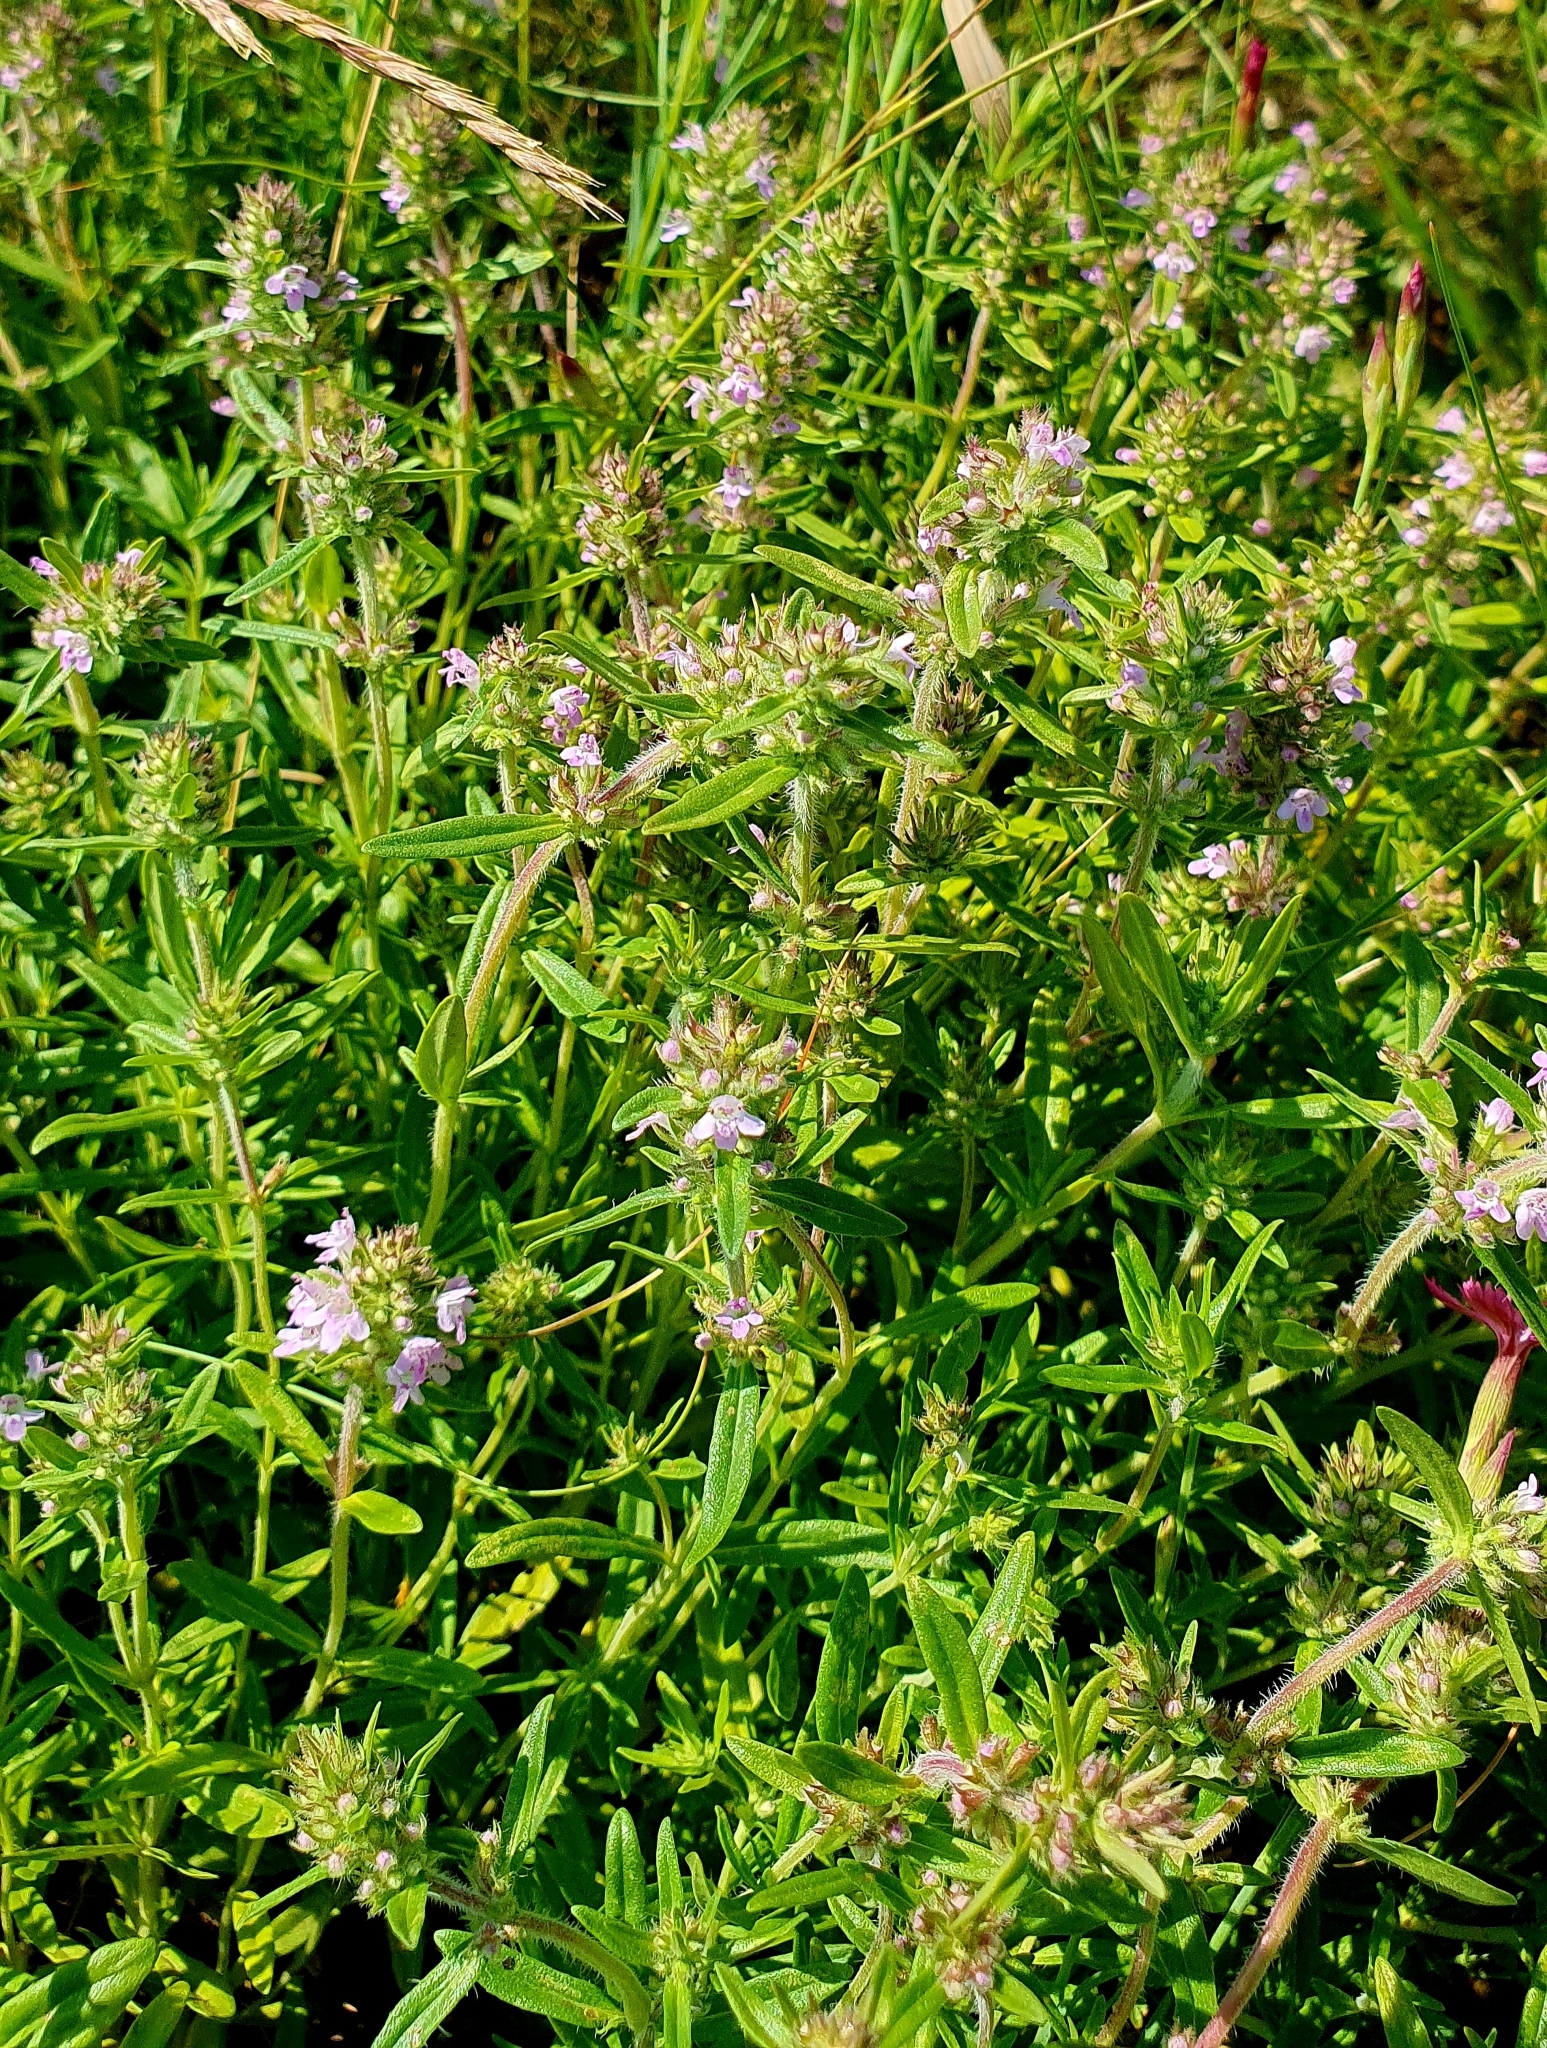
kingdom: Plantae
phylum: Tracheophyta
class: Magnoliopsida
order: Lamiales
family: Lamiaceae
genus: Thymus
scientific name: Thymus pannonicus
